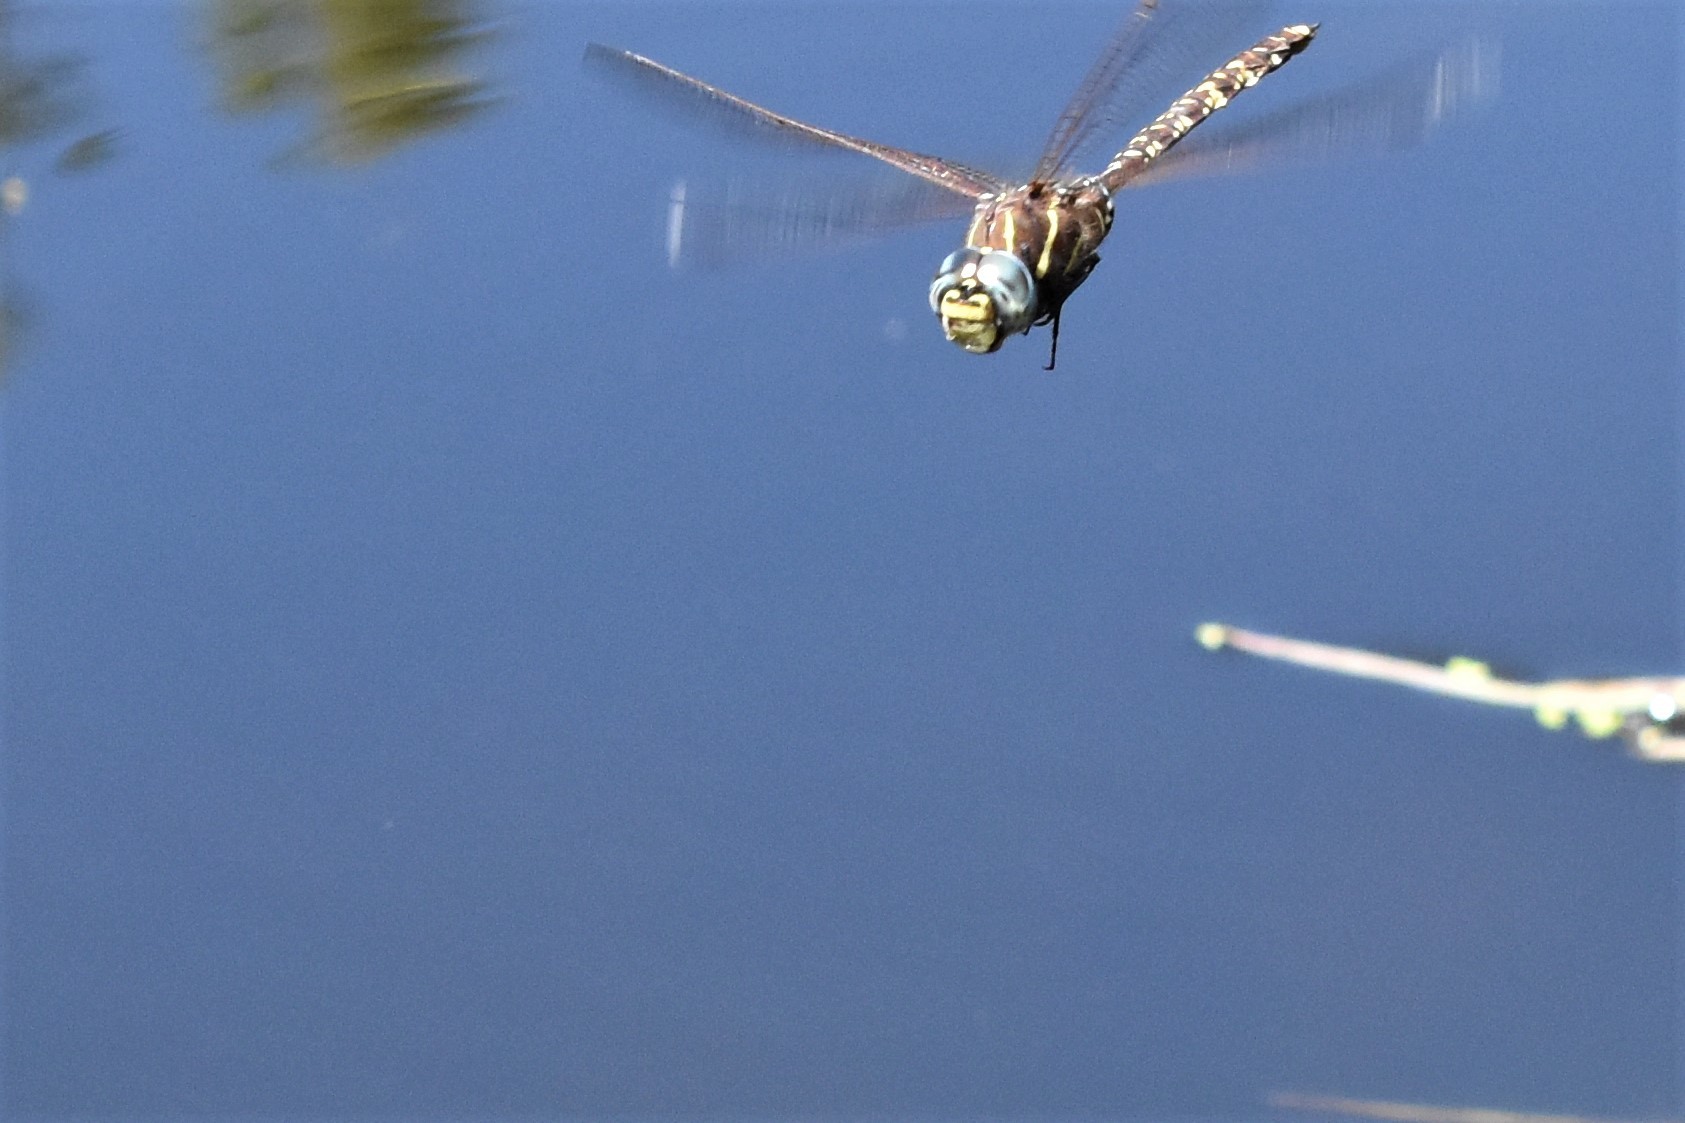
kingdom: Animalia
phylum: Arthropoda
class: Insecta
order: Odonata
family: Aeshnidae
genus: Aeshna
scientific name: Aeshna brevistyla
